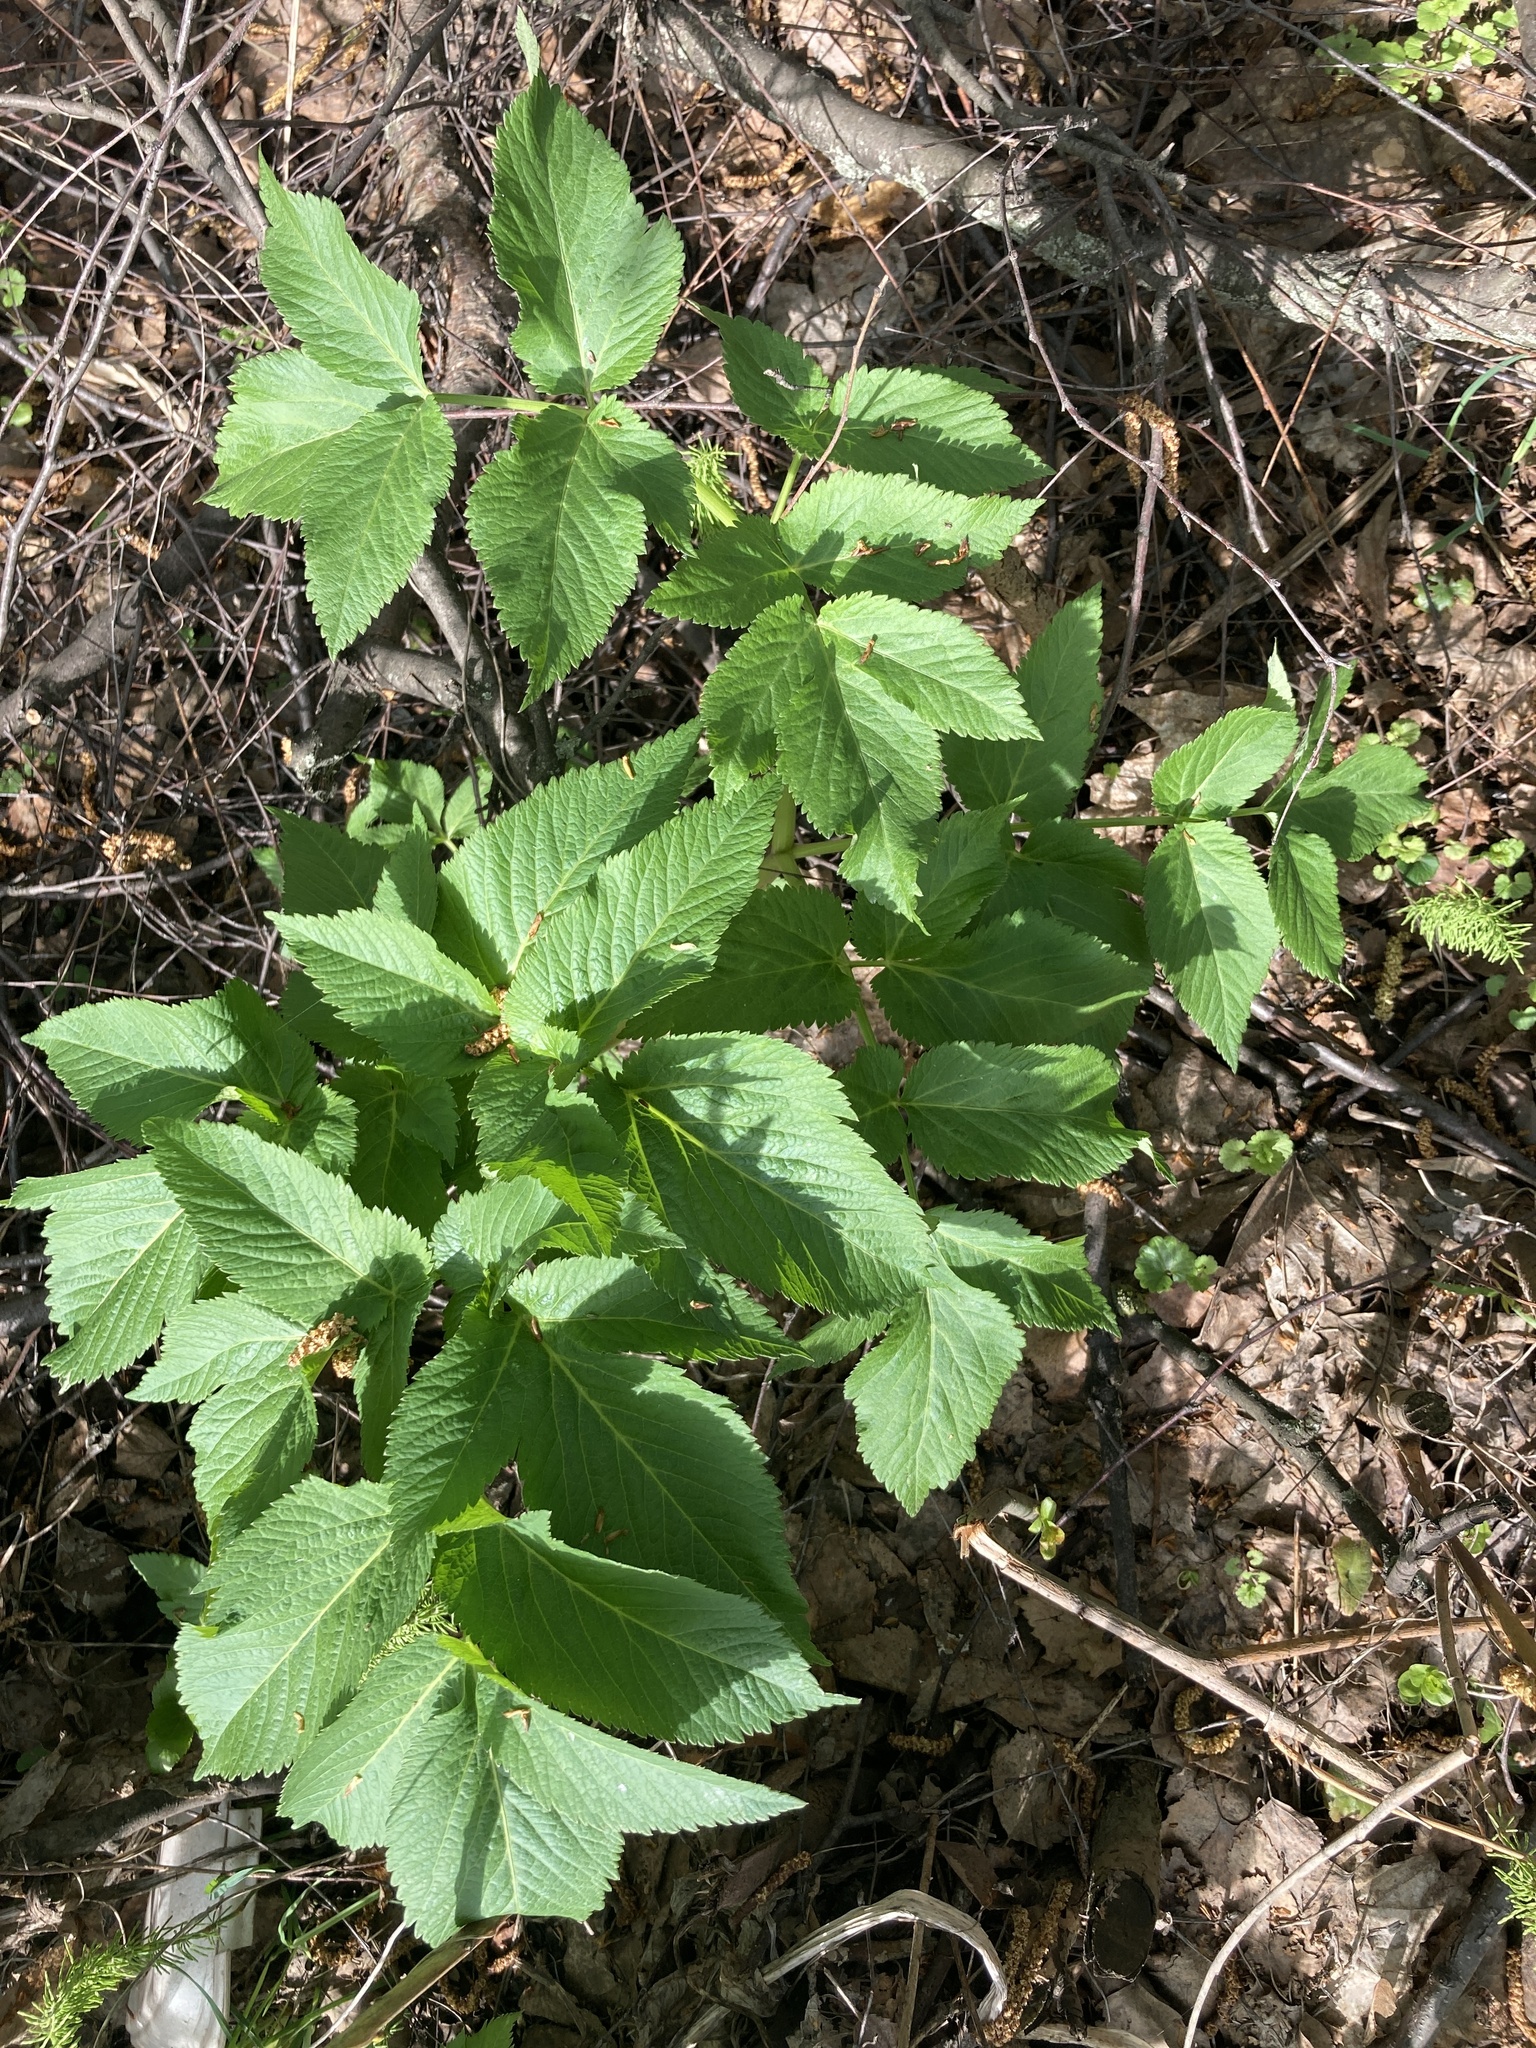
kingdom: Plantae
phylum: Tracheophyta
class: Magnoliopsida
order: Apiales
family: Apiaceae
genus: Angelica
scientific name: Angelica archangelica
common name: Garden angelica
